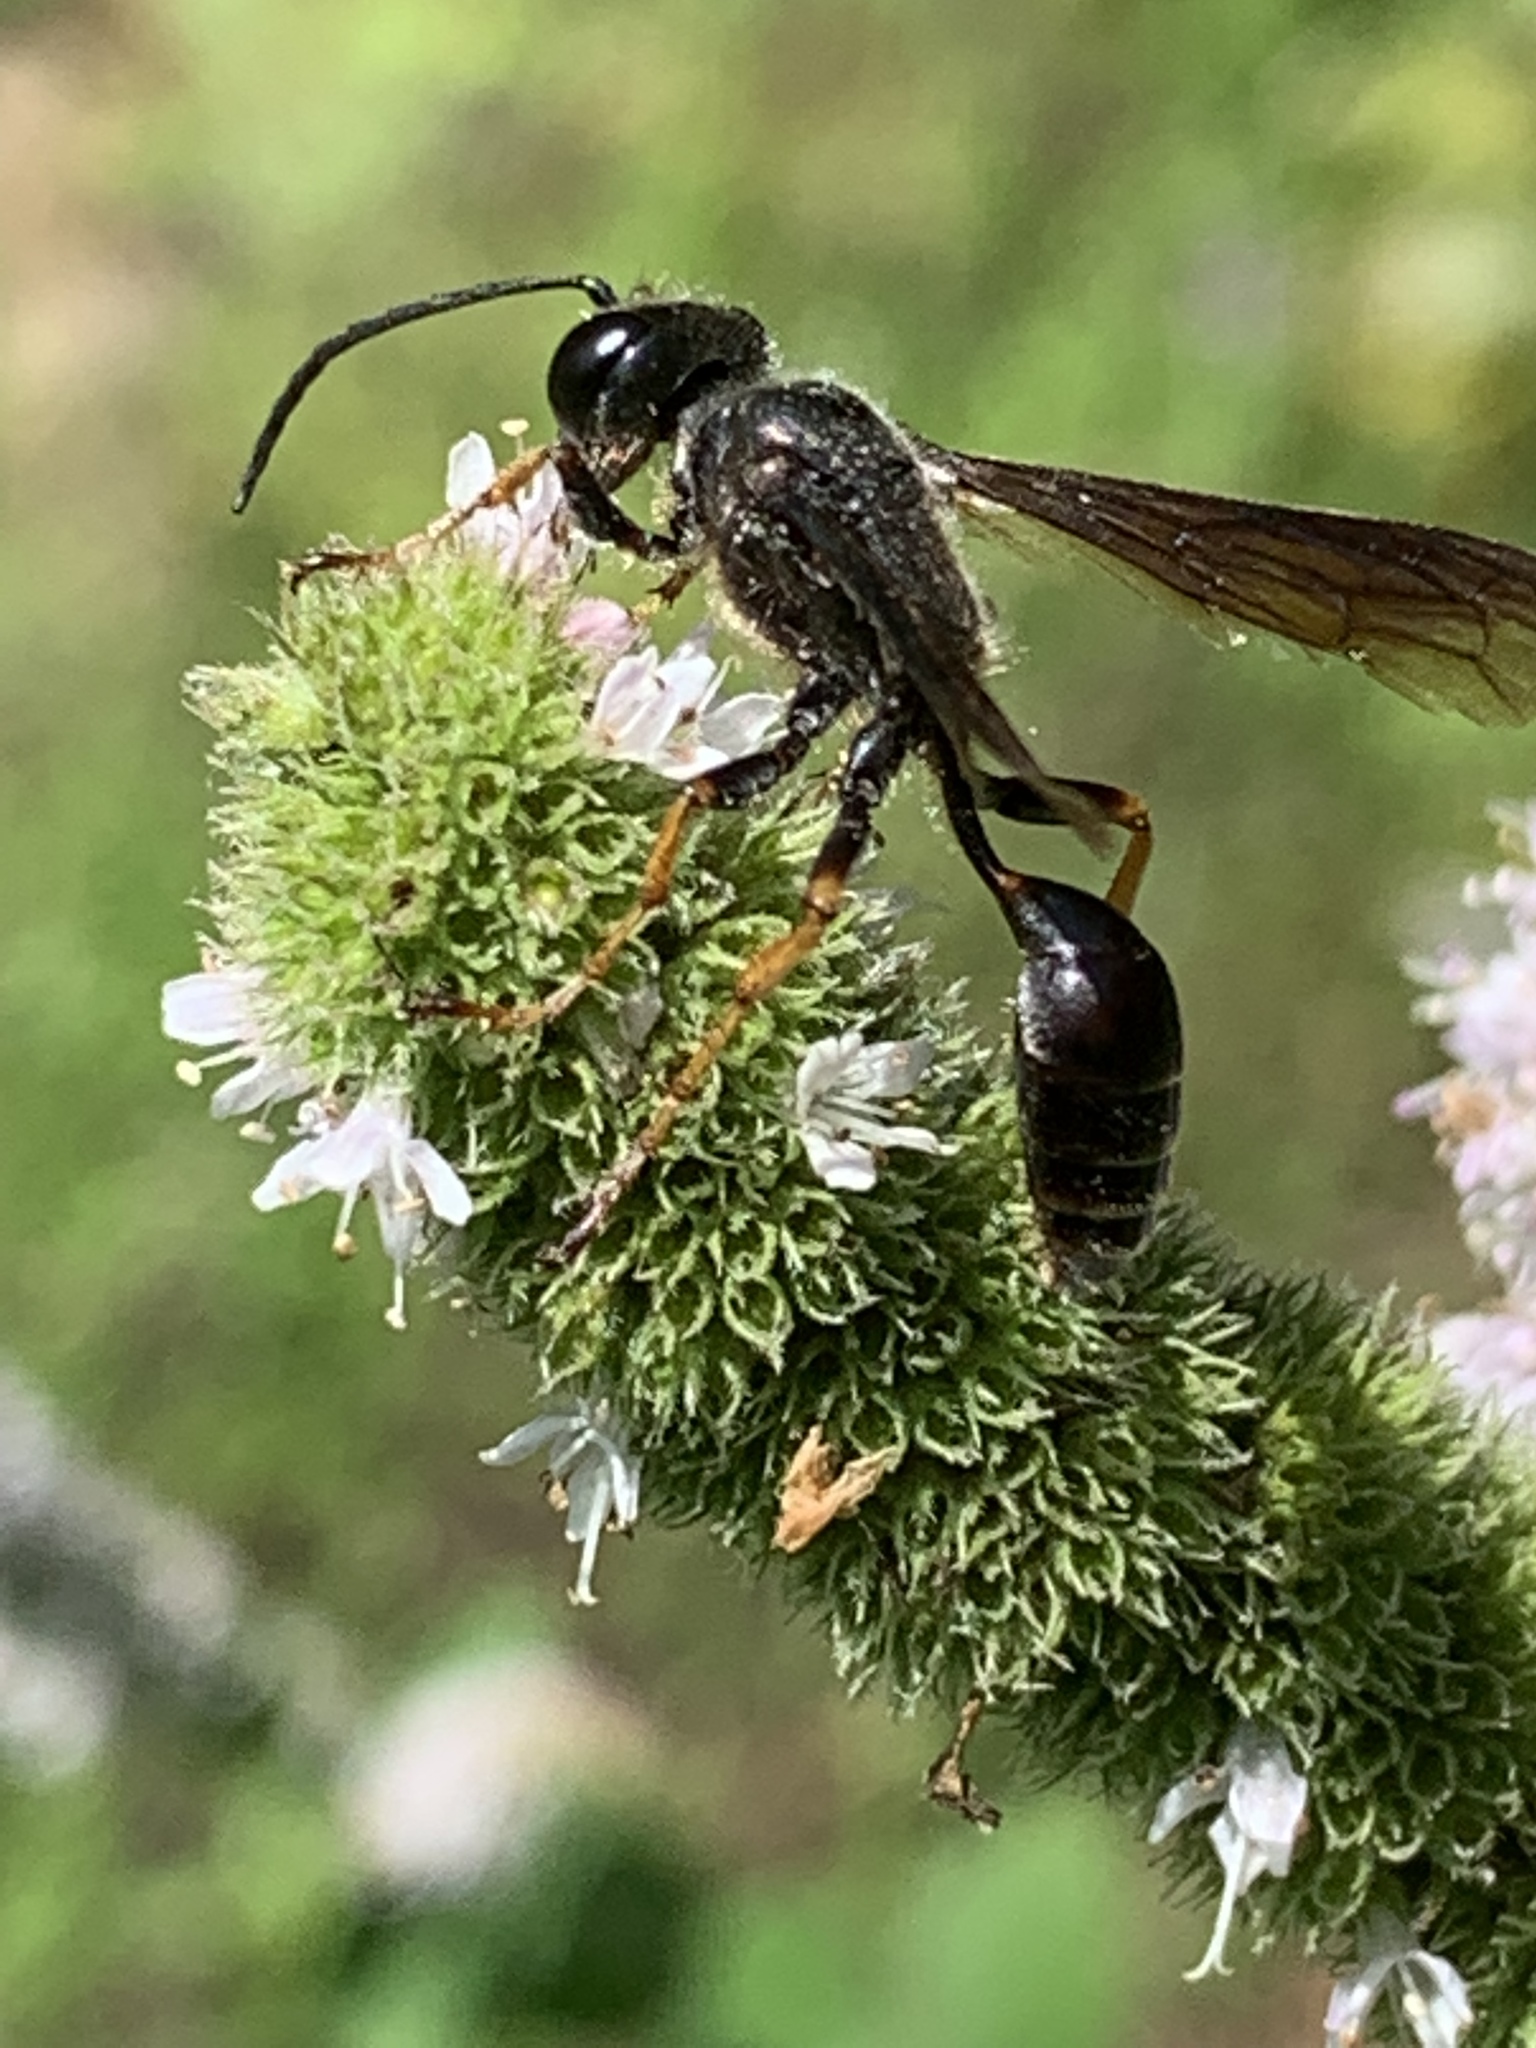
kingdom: Animalia
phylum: Arthropoda
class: Insecta
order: Hymenoptera
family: Sphecidae
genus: Isodontia
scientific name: Isodontia auripes
